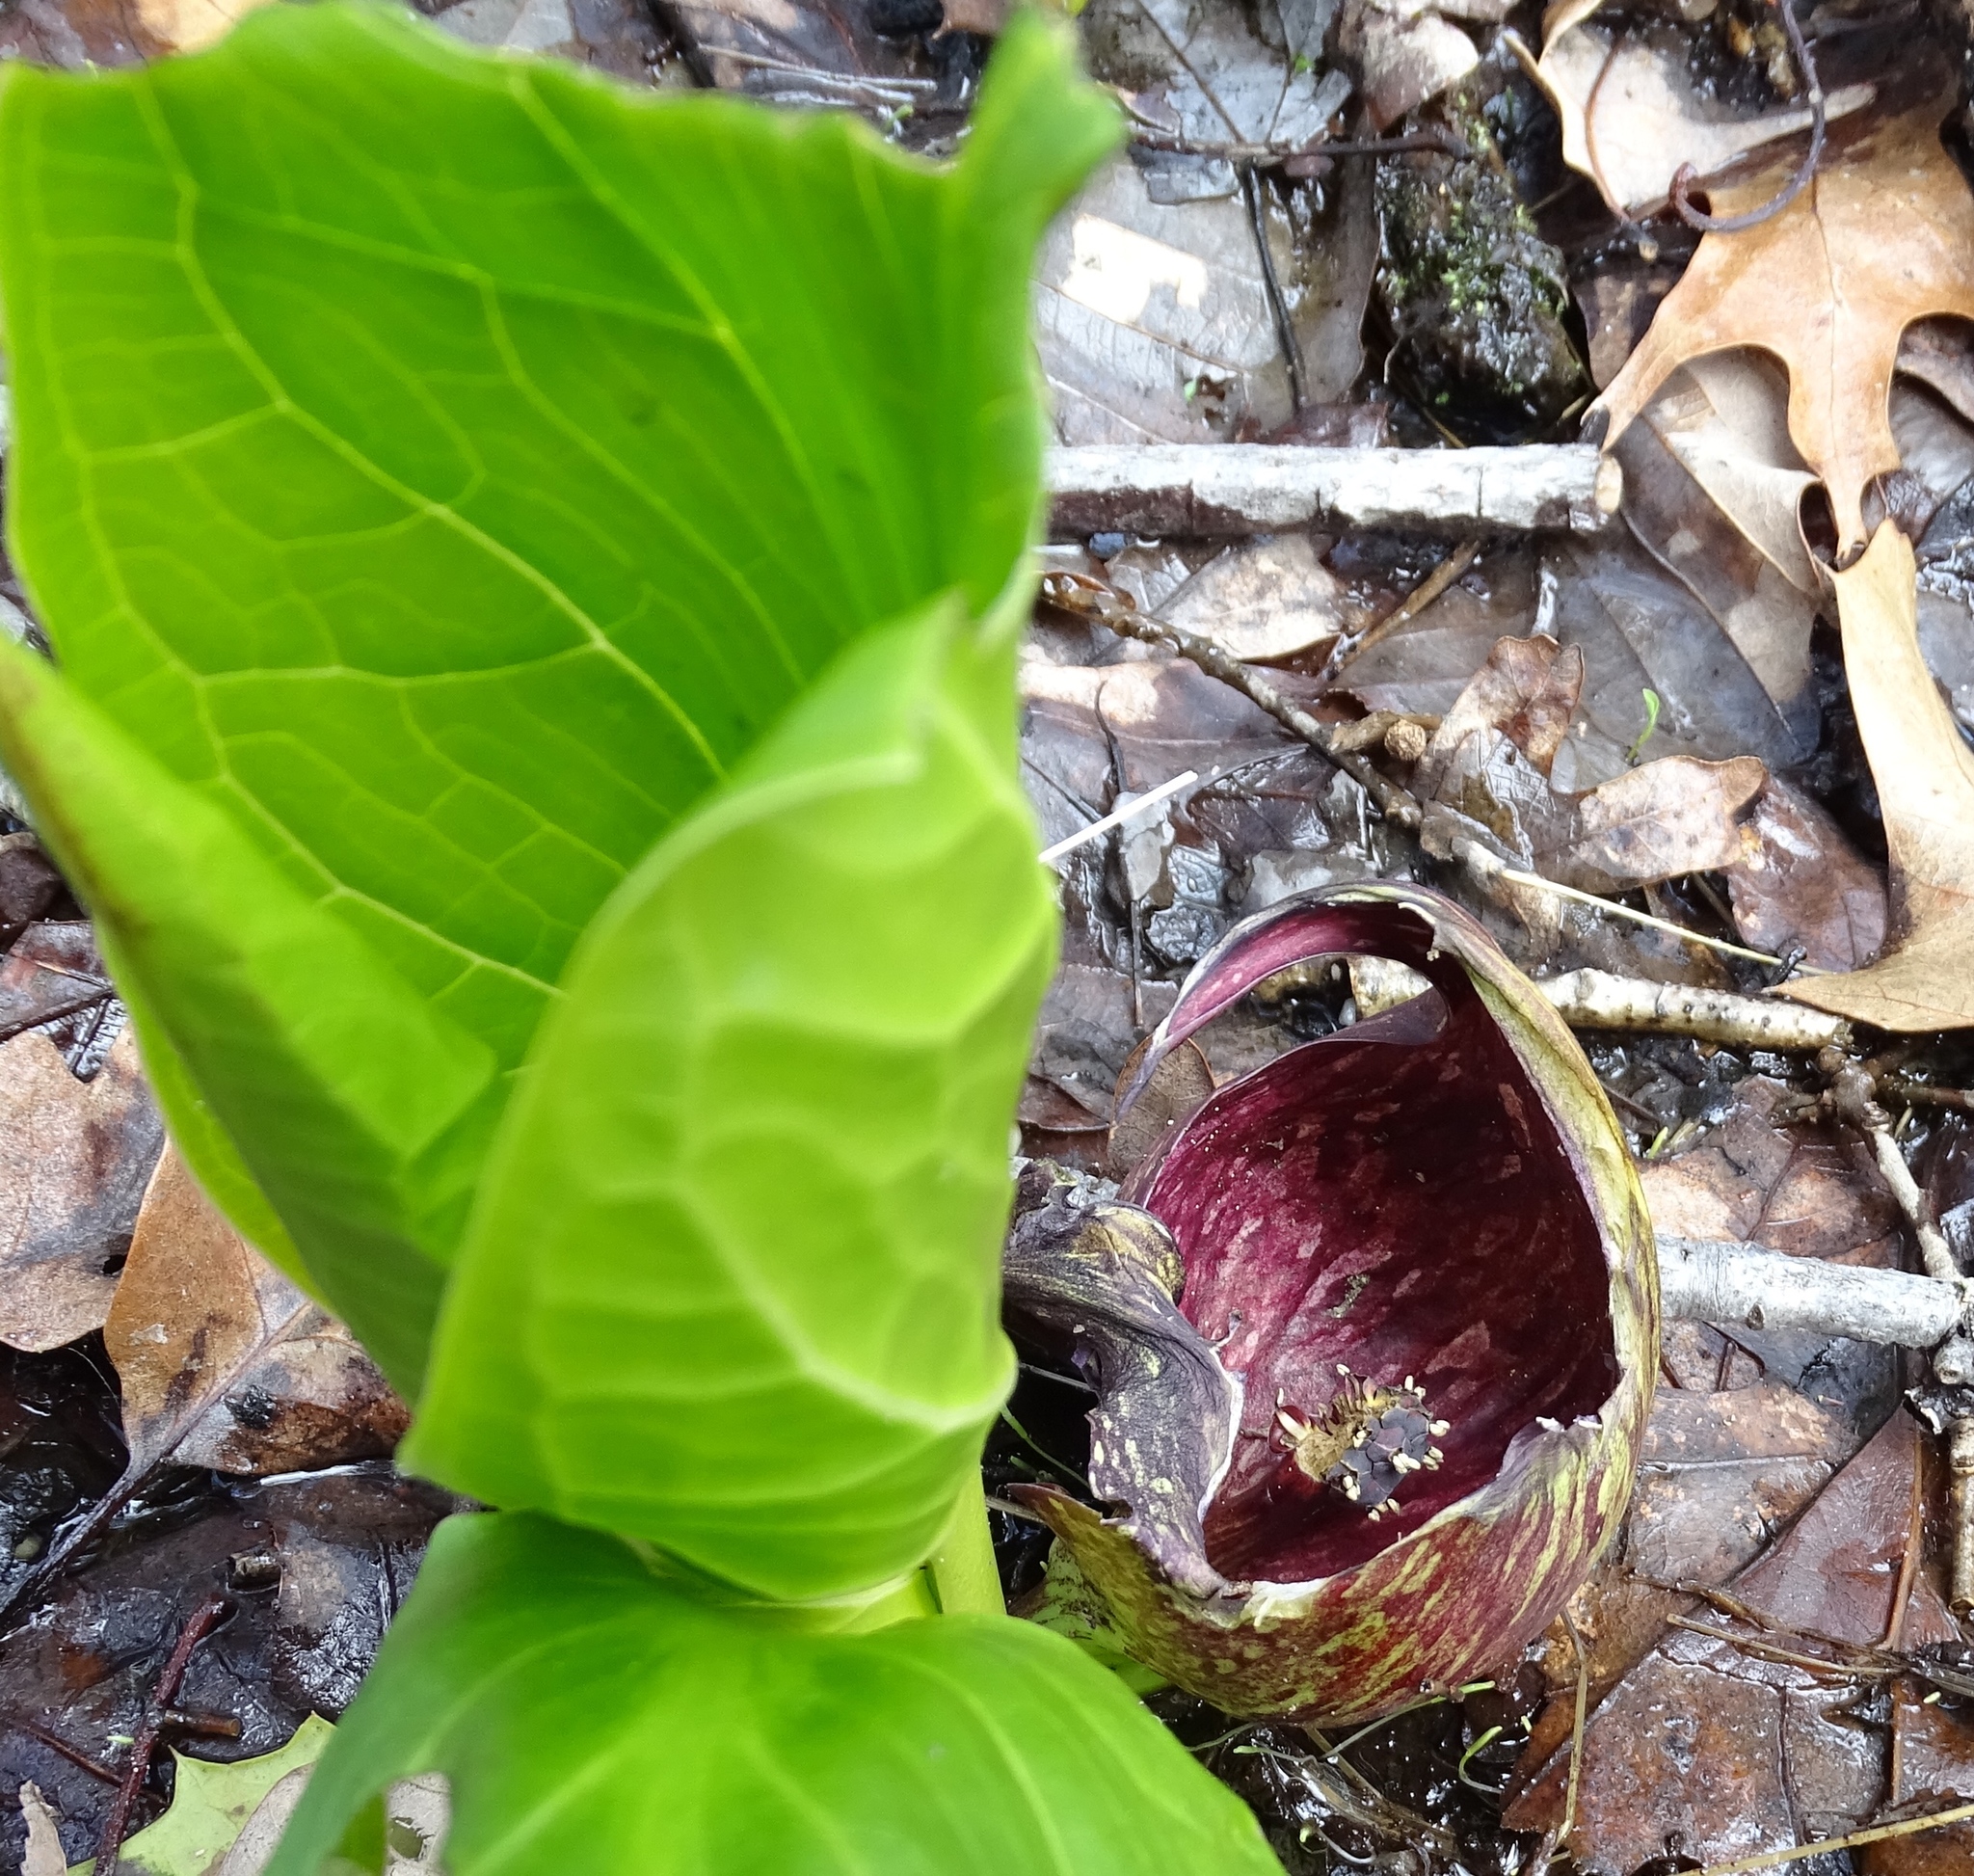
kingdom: Plantae
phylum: Tracheophyta
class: Liliopsida
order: Alismatales
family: Araceae
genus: Symplocarpus
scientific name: Symplocarpus foetidus
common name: Eastern skunk cabbage
